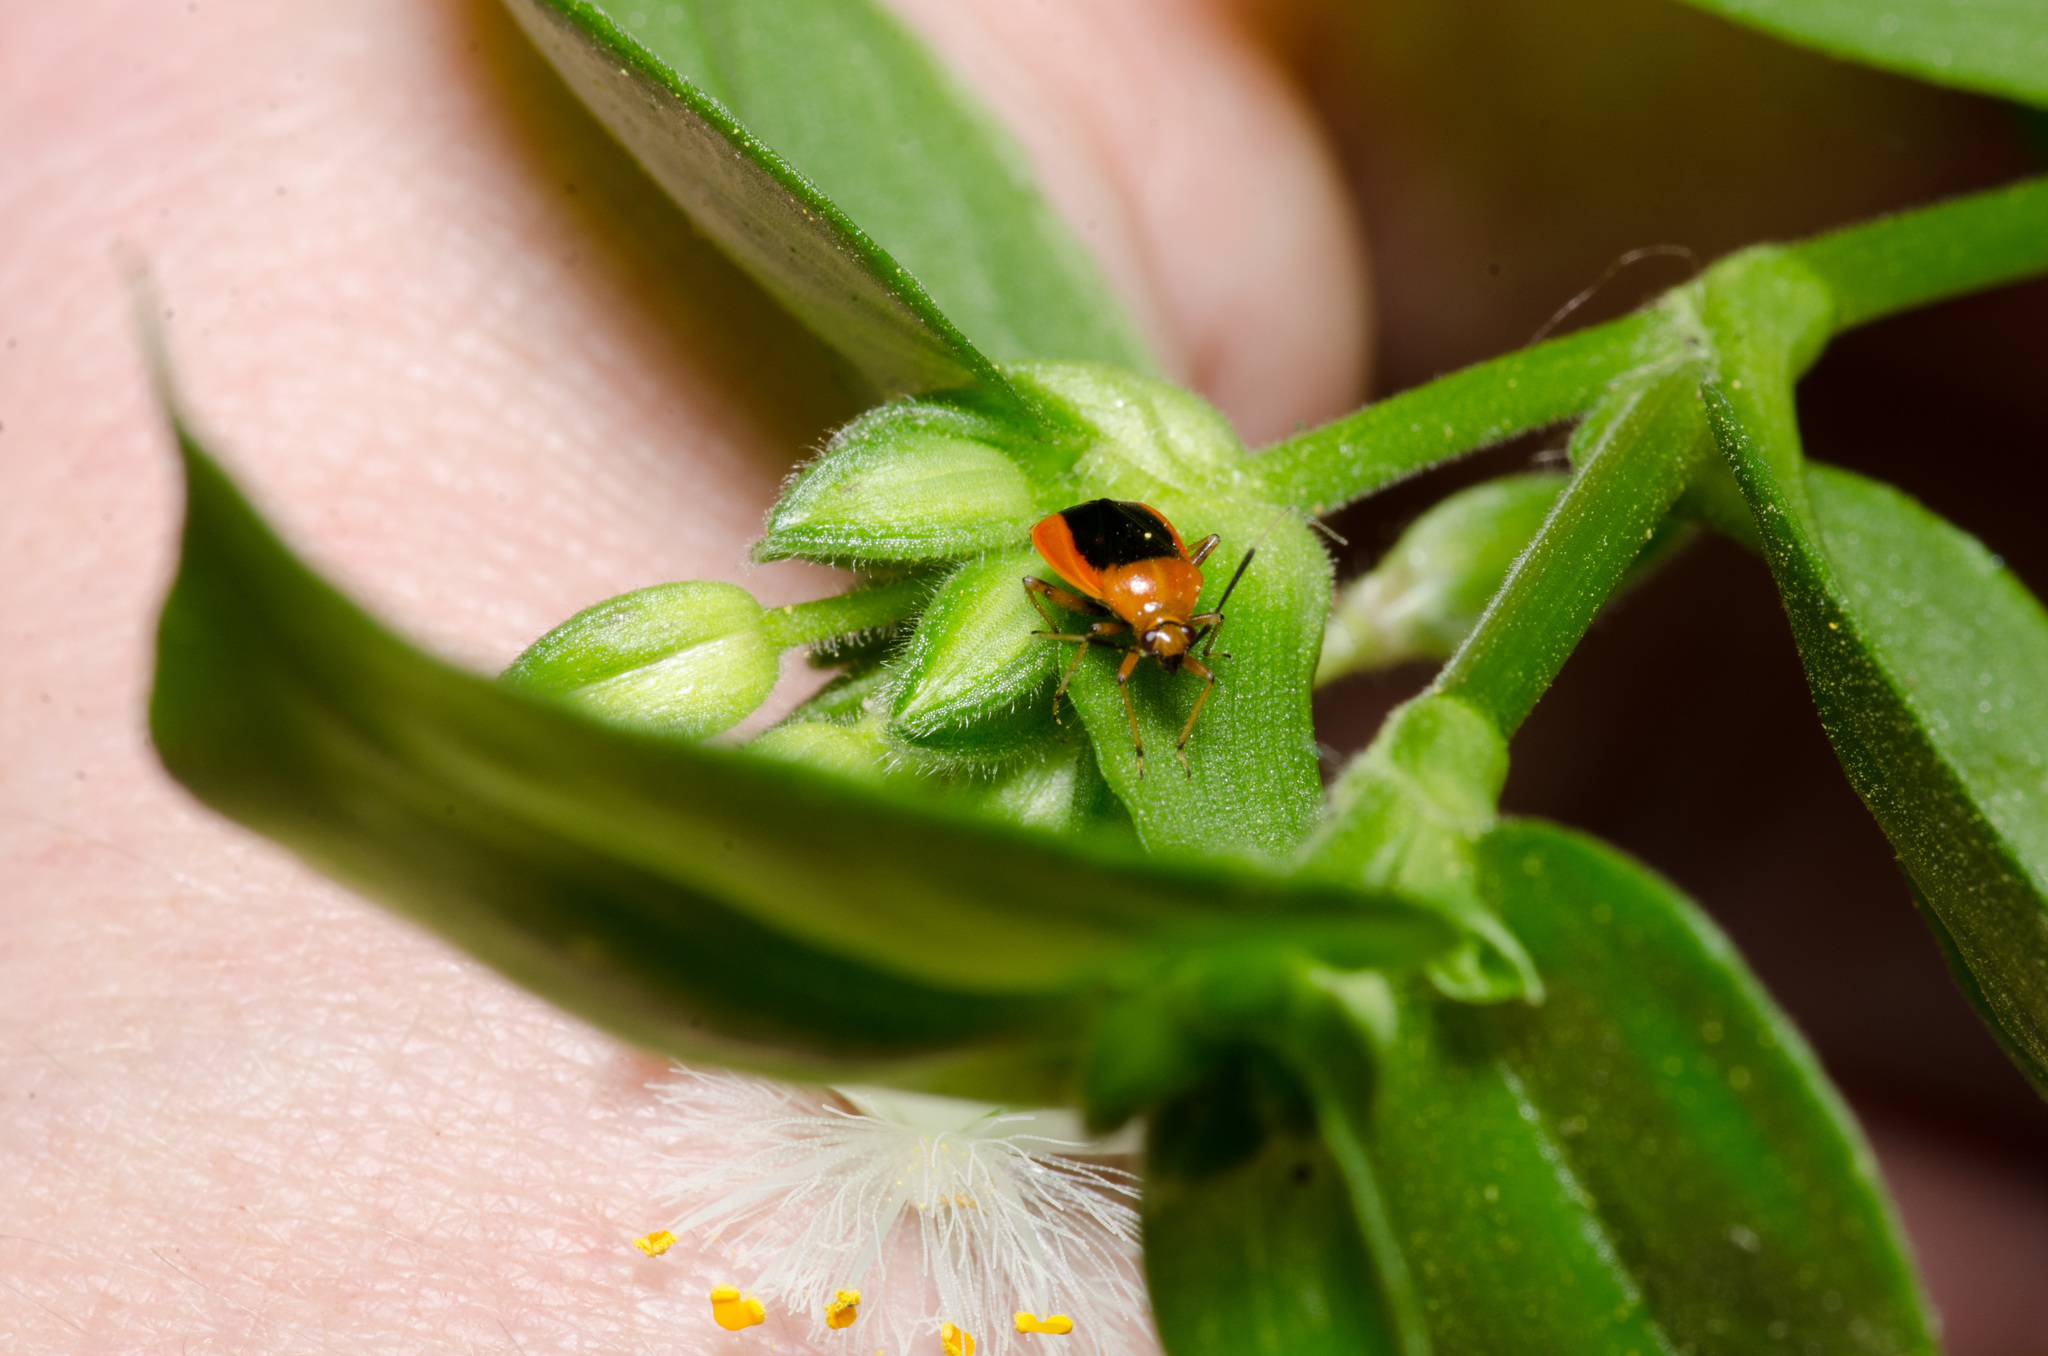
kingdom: Animalia
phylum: Arthropoda
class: Insecta
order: Hemiptera
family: Miridae
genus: Metriorrhynchomiris
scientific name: Metriorrhynchomiris dislocatus
